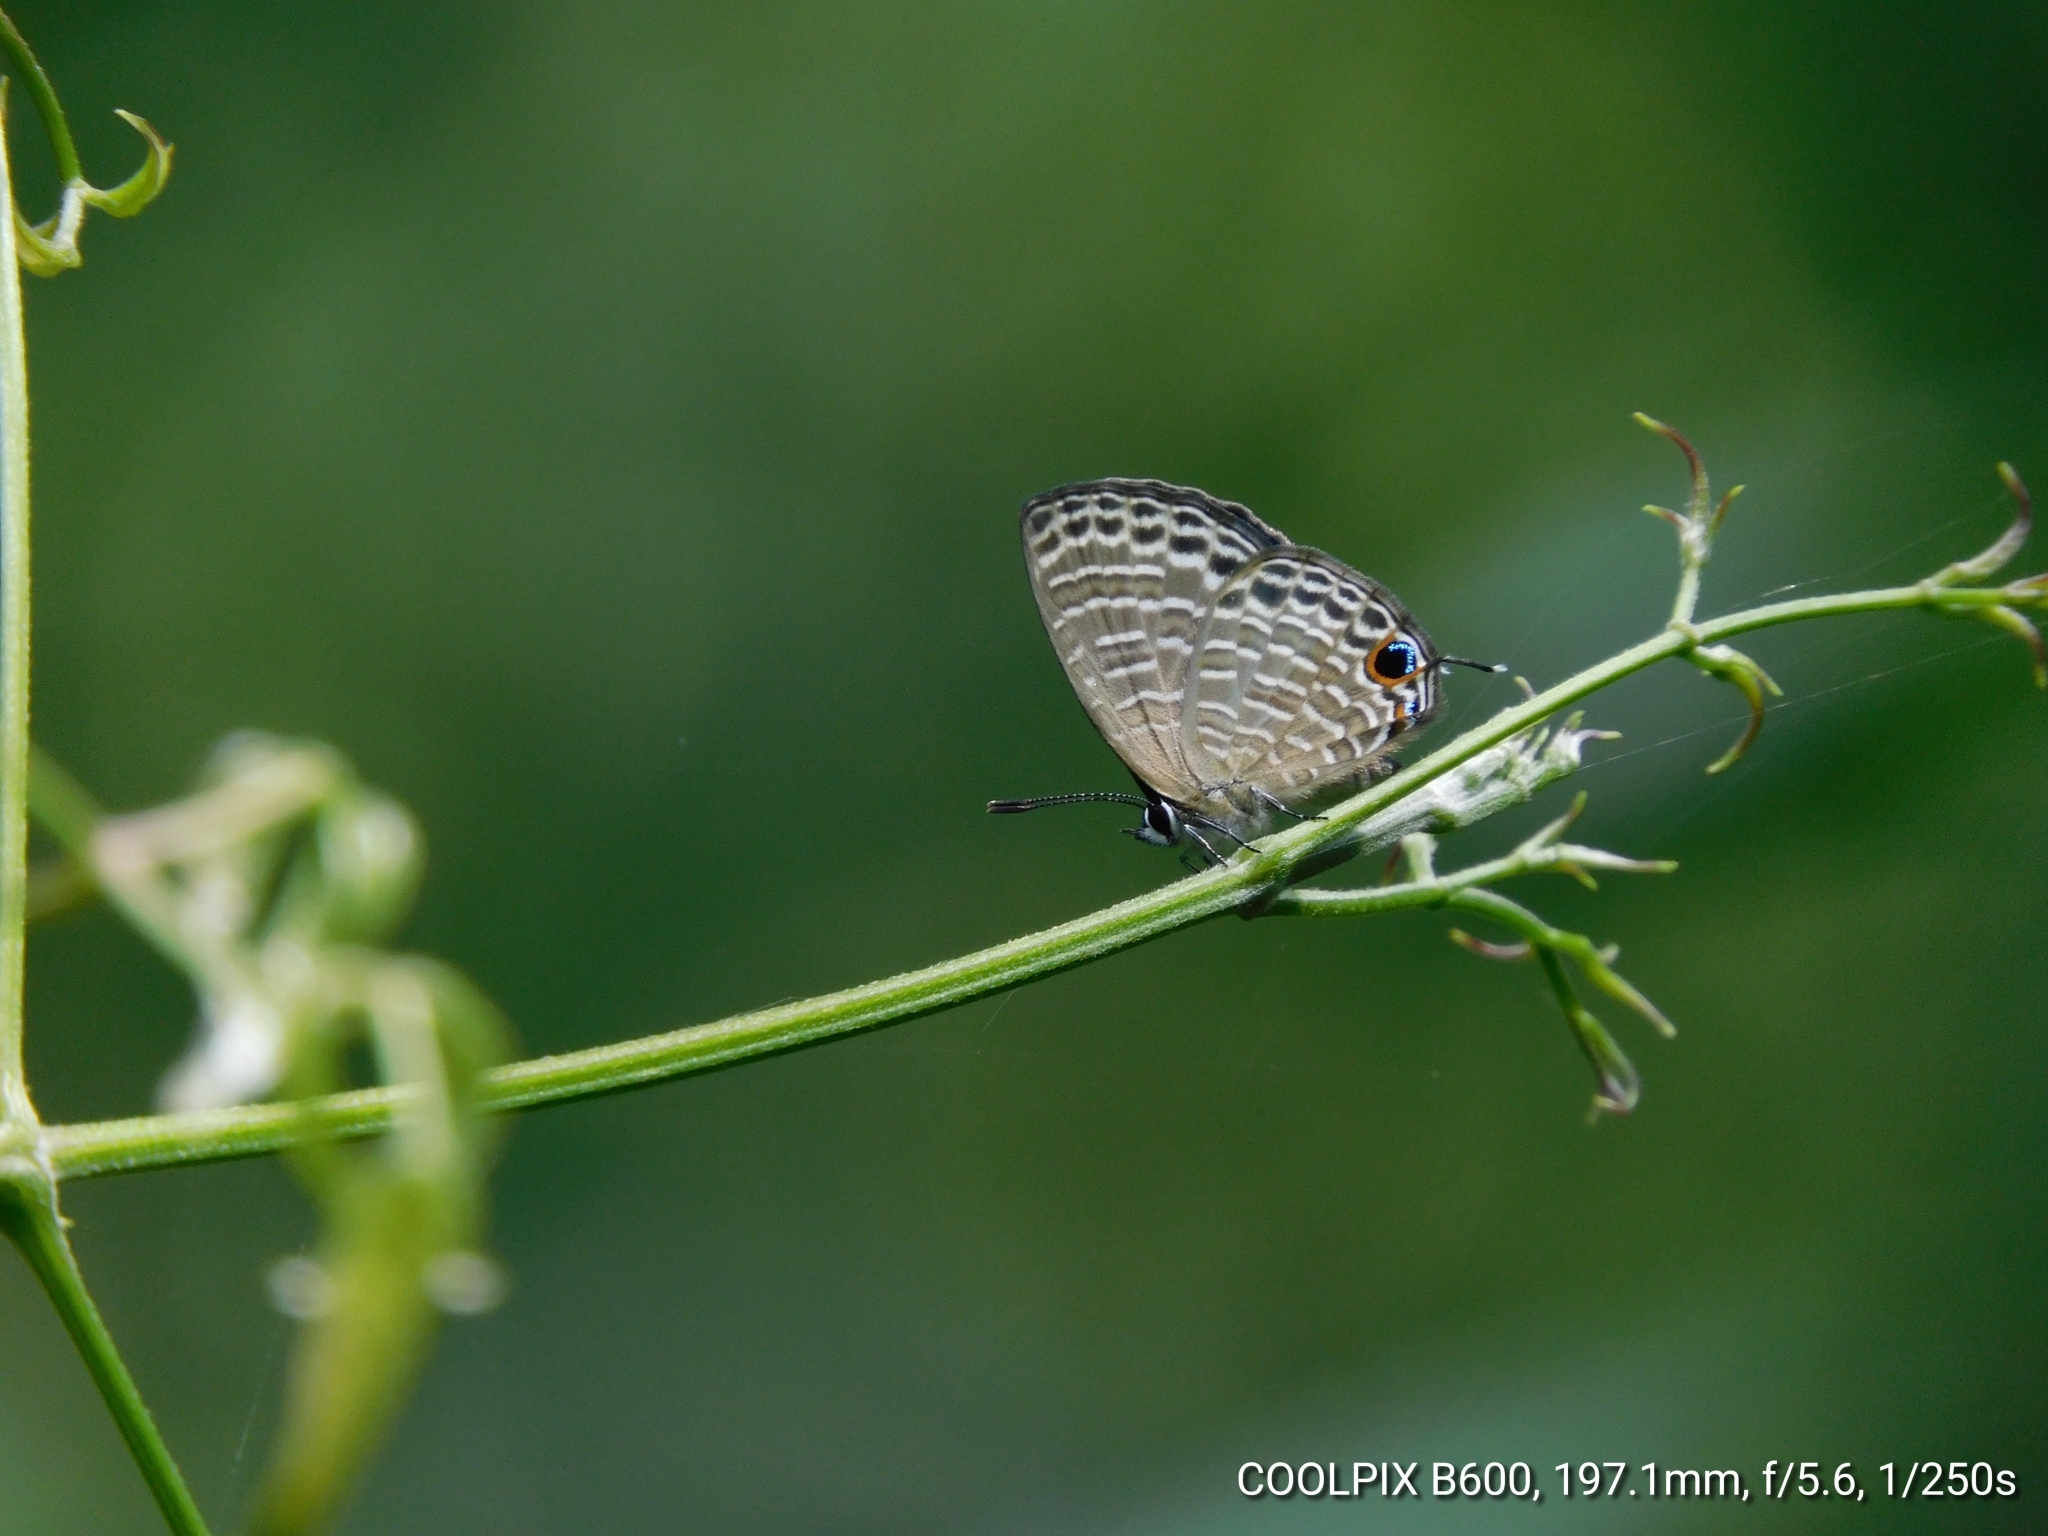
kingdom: Animalia
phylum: Arthropoda
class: Insecta
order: Lepidoptera
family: Lycaenidae
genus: Nacaduba
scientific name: Nacaduba kurava
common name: Transparent 6-line blue
